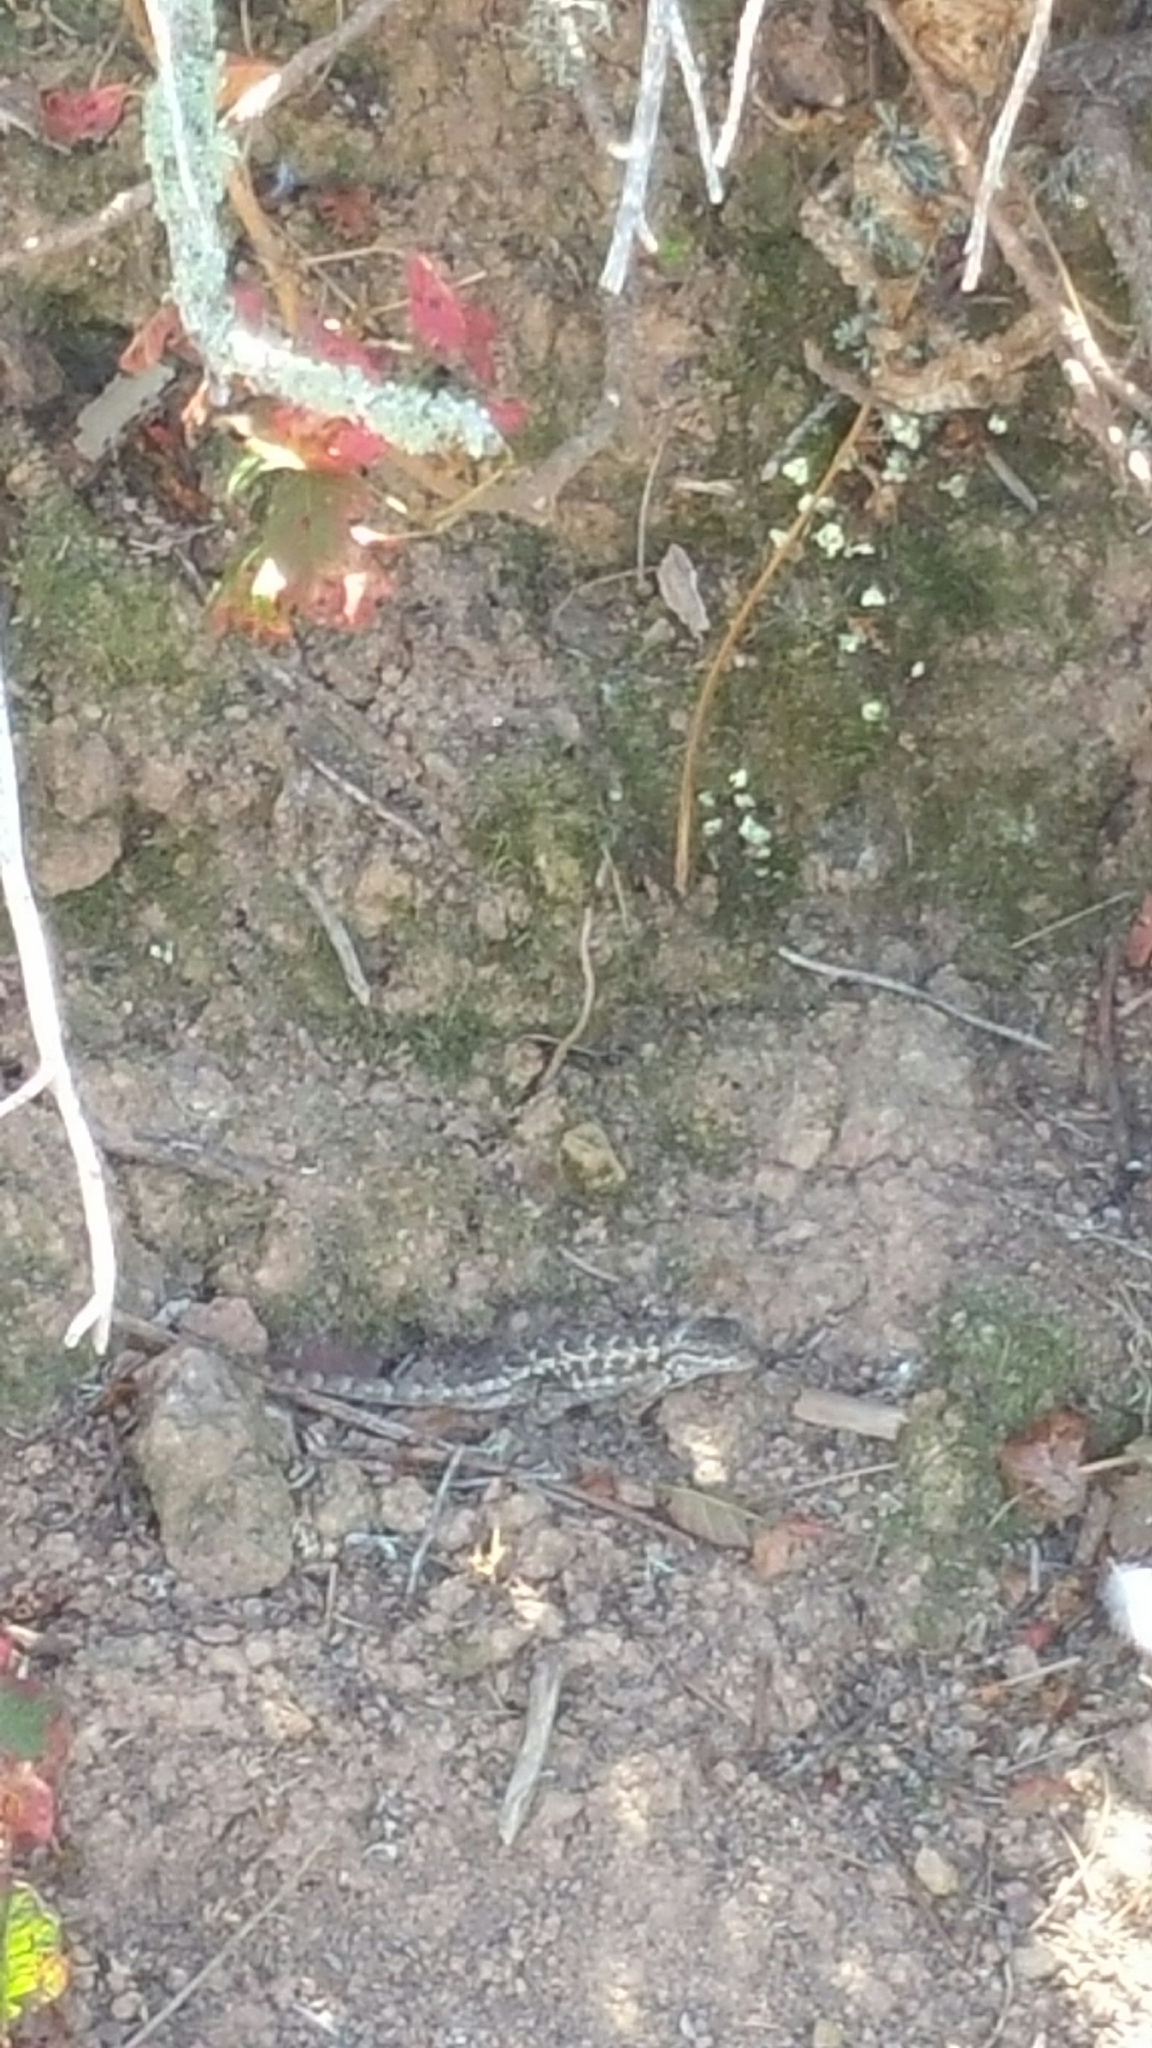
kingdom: Animalia
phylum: Chordata
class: Squamata
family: Phrynosomatidae
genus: Sceloporus
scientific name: Sceloporus occidentalis
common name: Western fence lizard
